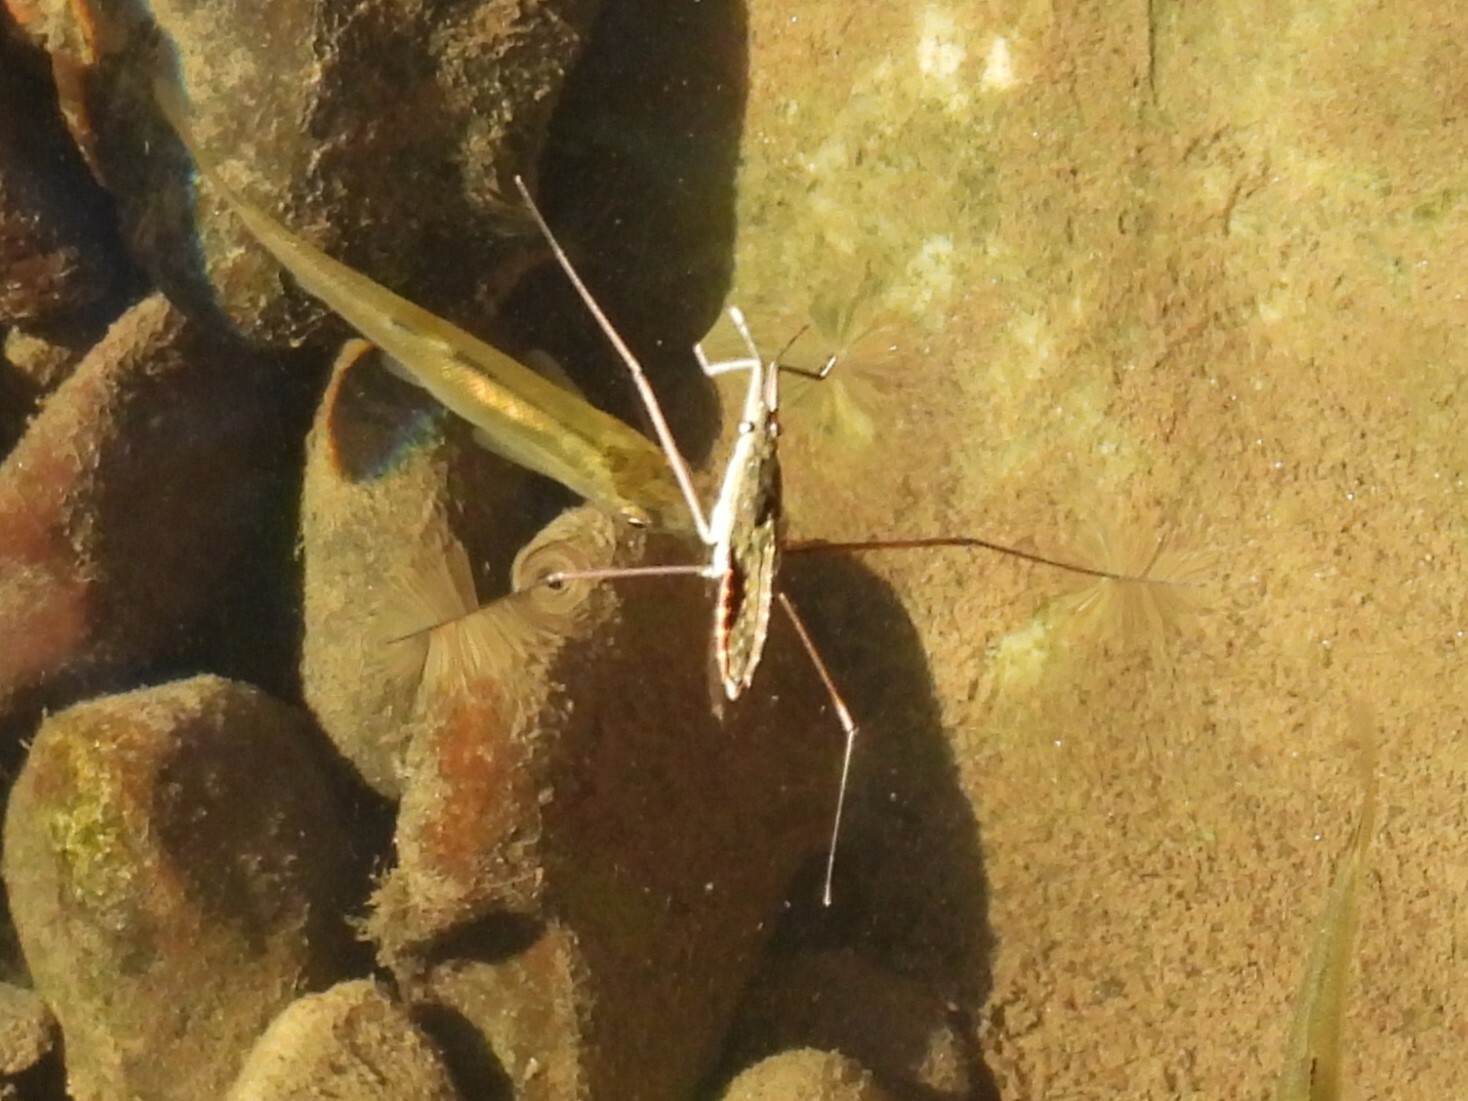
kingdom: Animalia
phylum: Arthropoda
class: Insecta
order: Hemiptera
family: Gerridae
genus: Aquarius
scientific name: Aquarius remigis
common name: Common water strider
